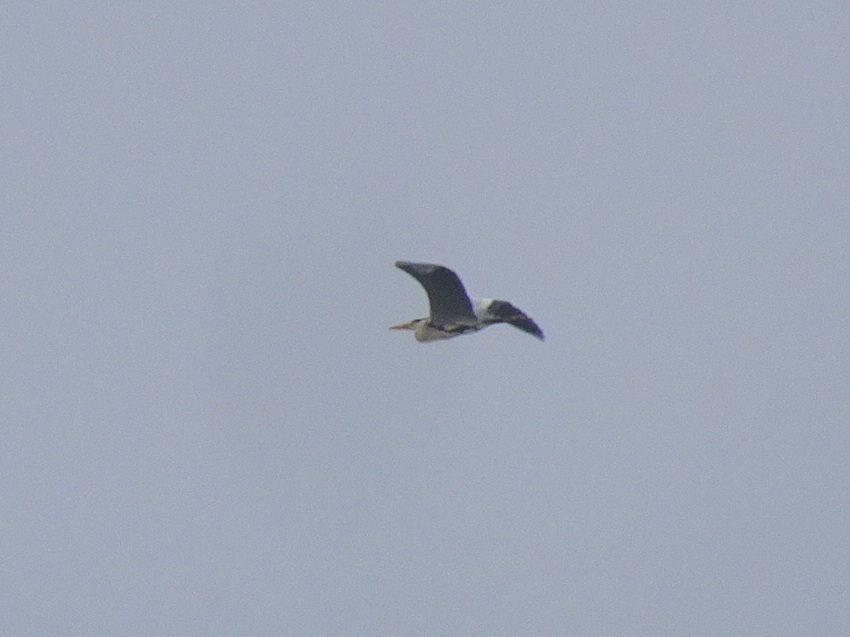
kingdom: Animalia
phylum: Chordata
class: Aves
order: Pelecaniformes
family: Ardeidae
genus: Ardea
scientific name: Ardea cinerea
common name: Grey heron
